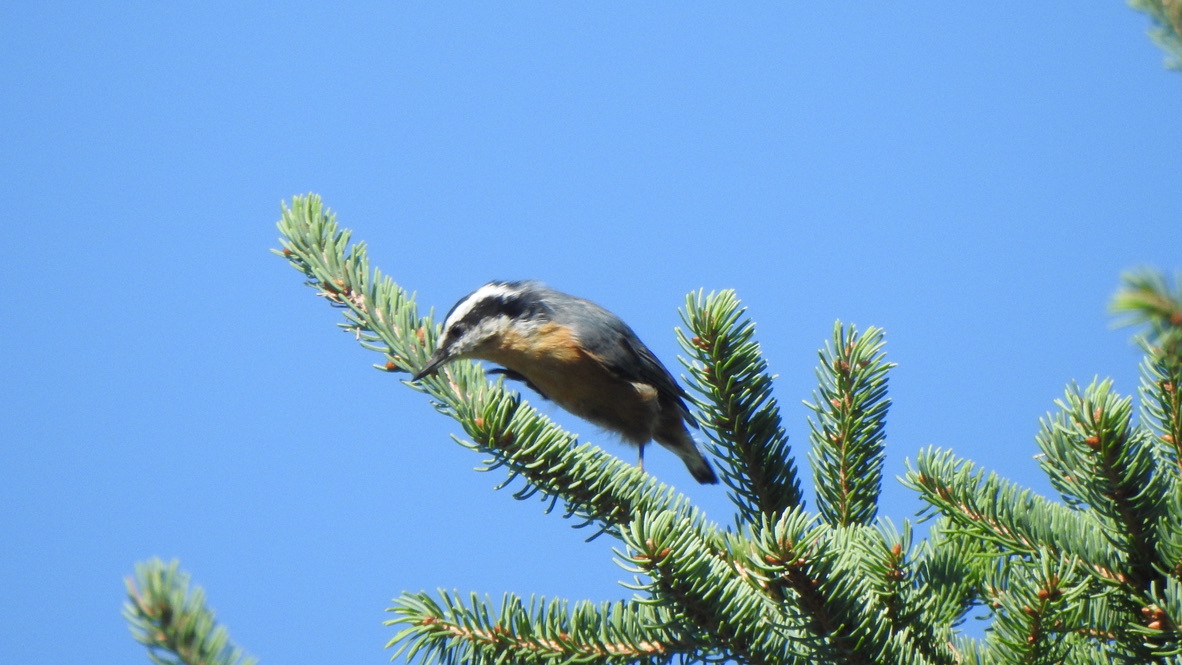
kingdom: Animalia
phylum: Chordata
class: Aves
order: Passeriformes
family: Sittidae
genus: Sitta
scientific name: Sitta canadensis
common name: Red-breasted nuthatch
